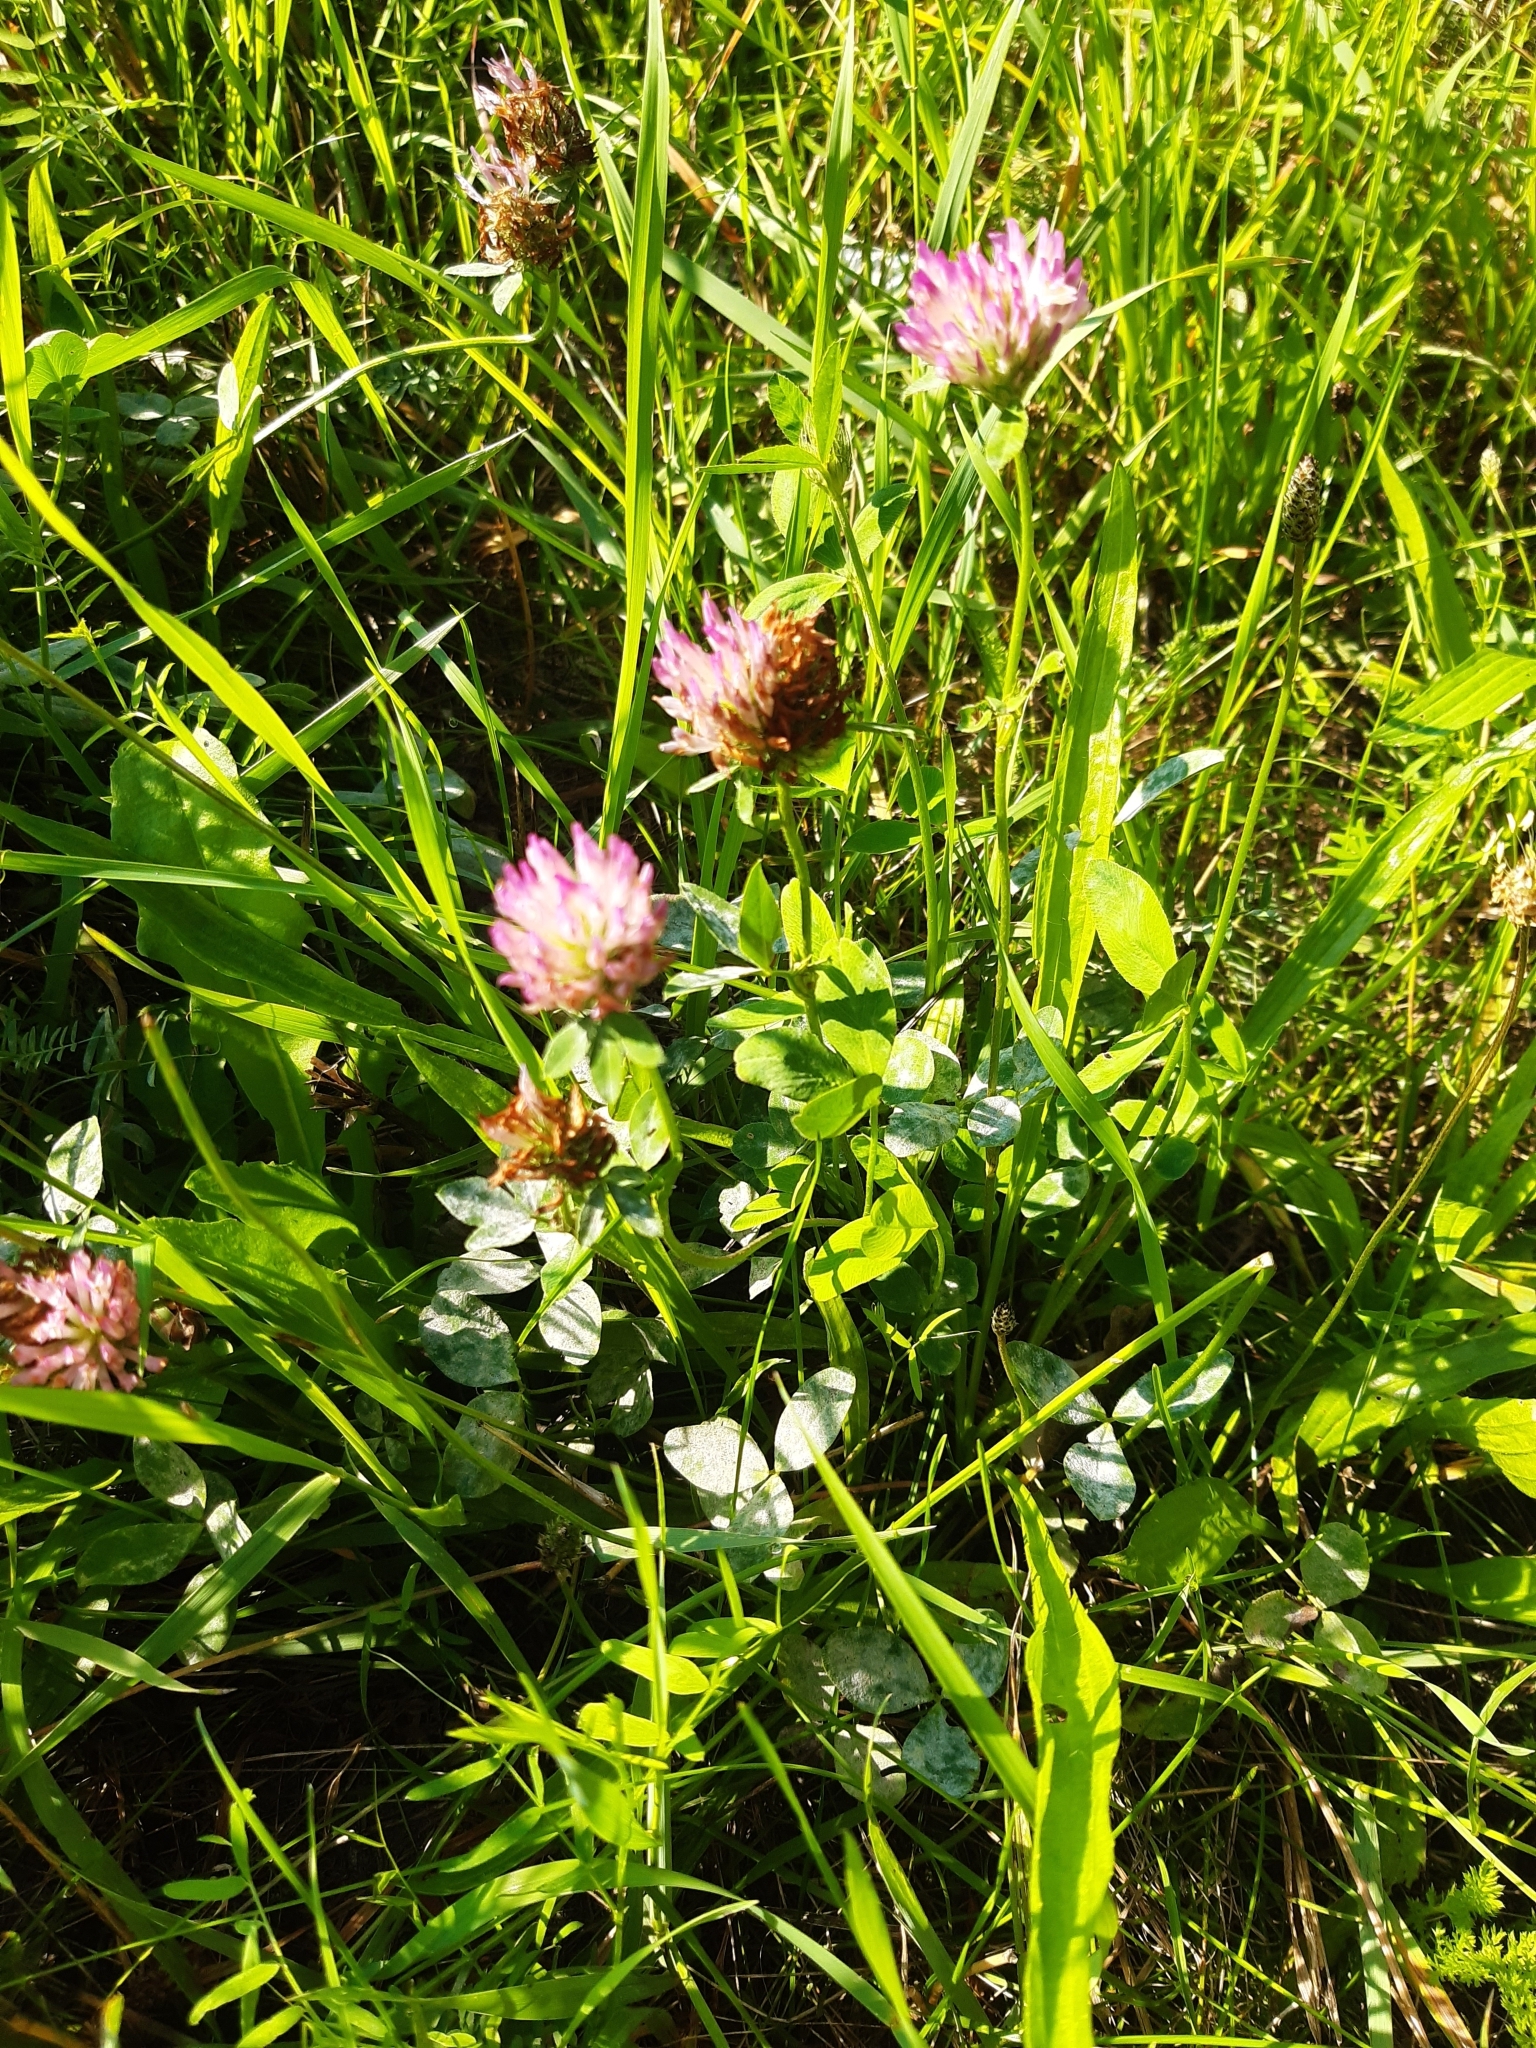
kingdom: Plantae
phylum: Tracheophyta
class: Magnoliopsida
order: Fabales
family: Fabaceae
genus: Trifolium
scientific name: Trifolium pratense
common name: Red clover
